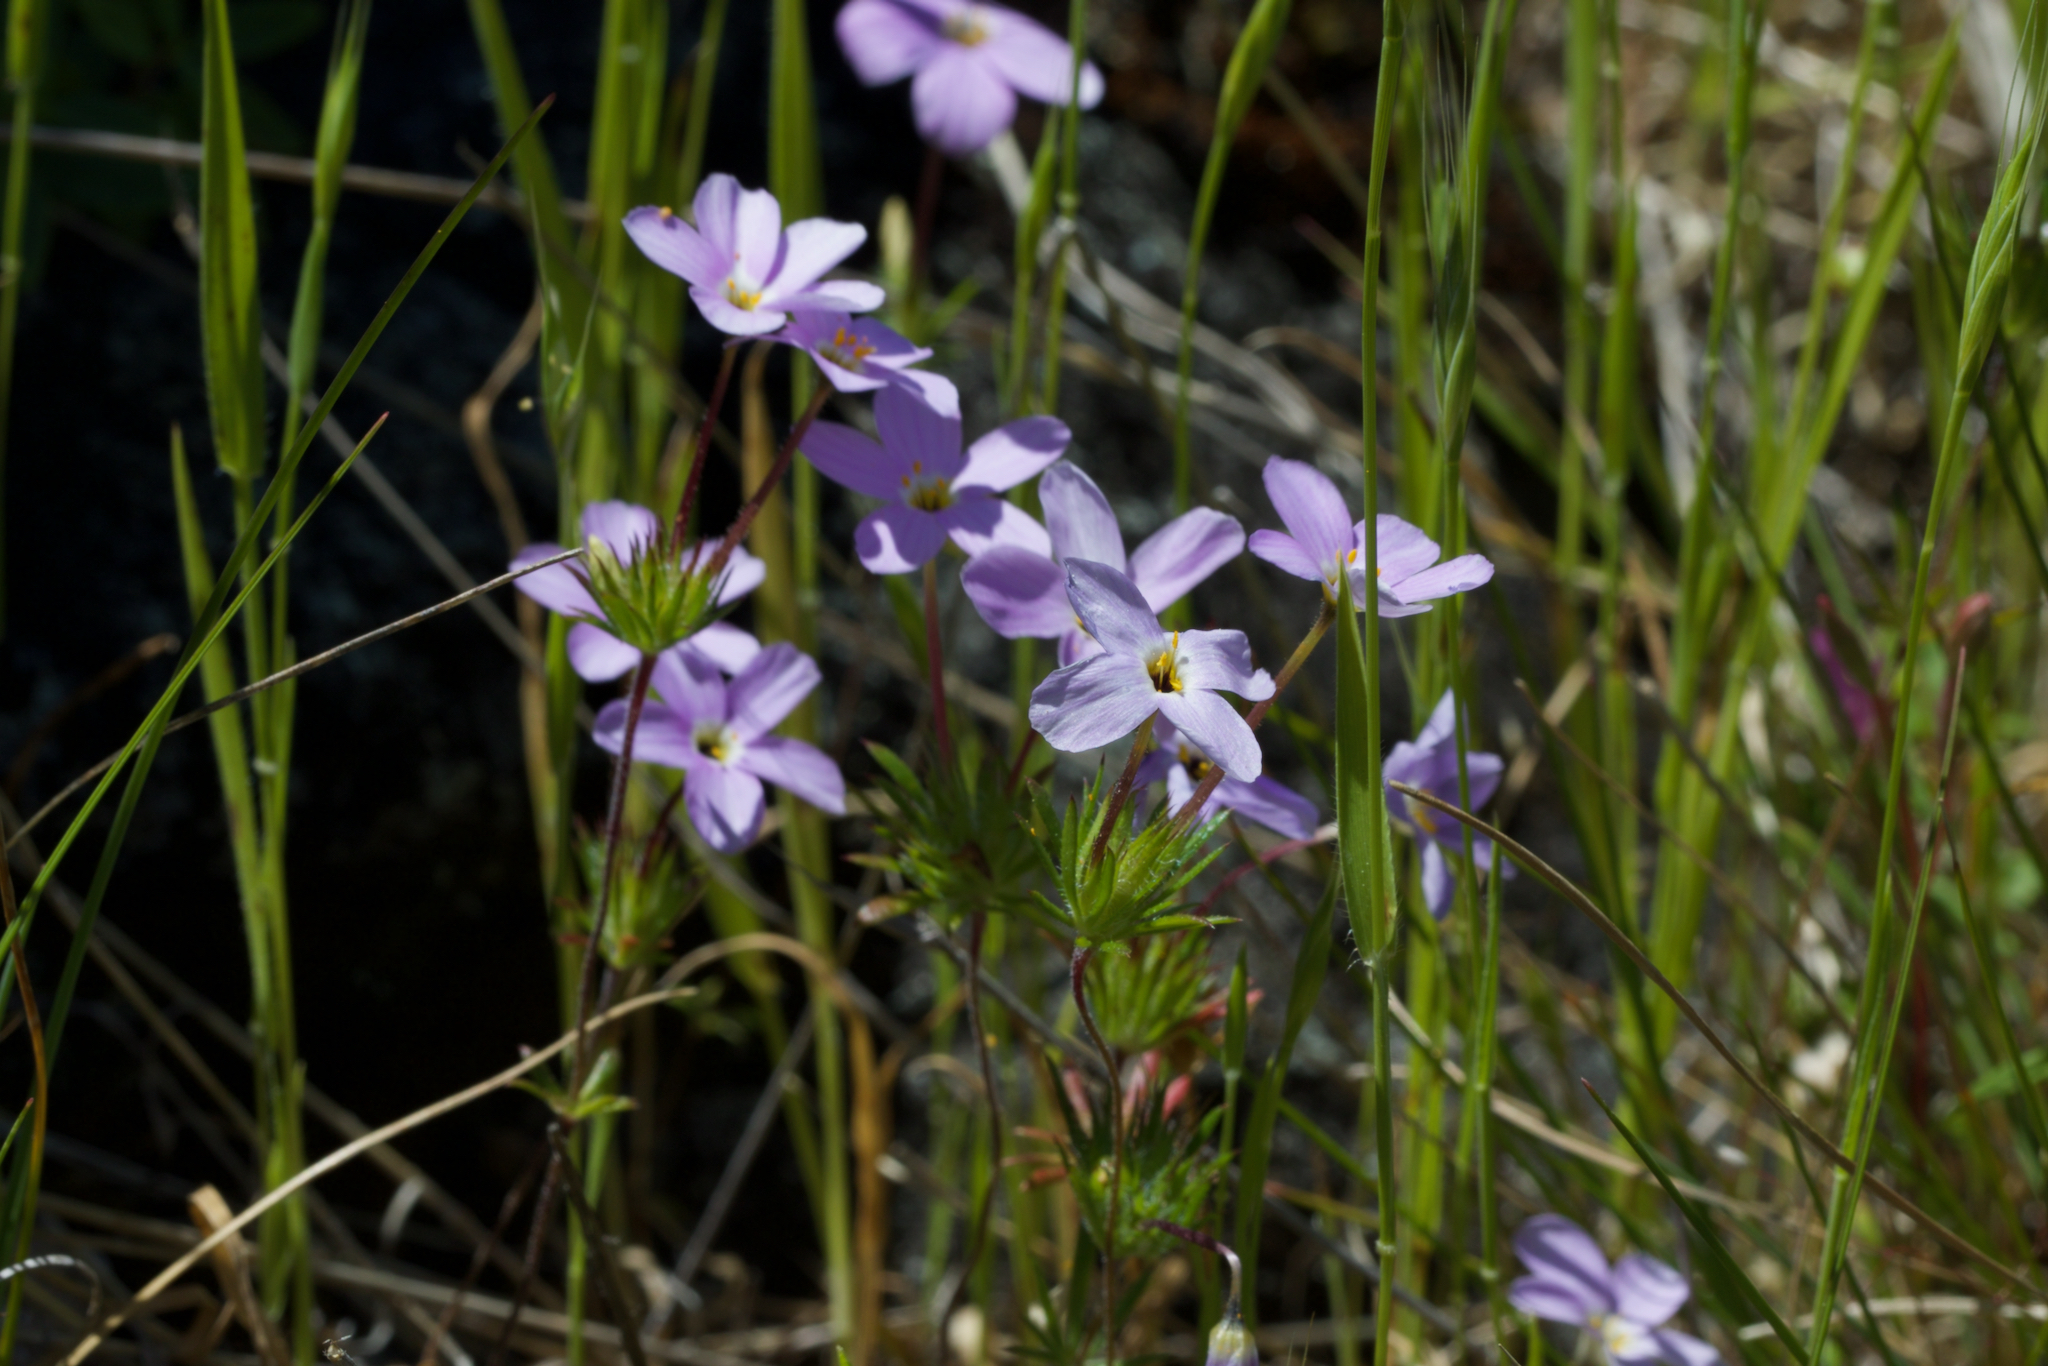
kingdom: Plantae
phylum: Tracheophyta
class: Magnoliopsida
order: Ericales
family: Polemoniaceae
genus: Leptosiphon
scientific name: Leptosiphon androsaceus
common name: False babystars
